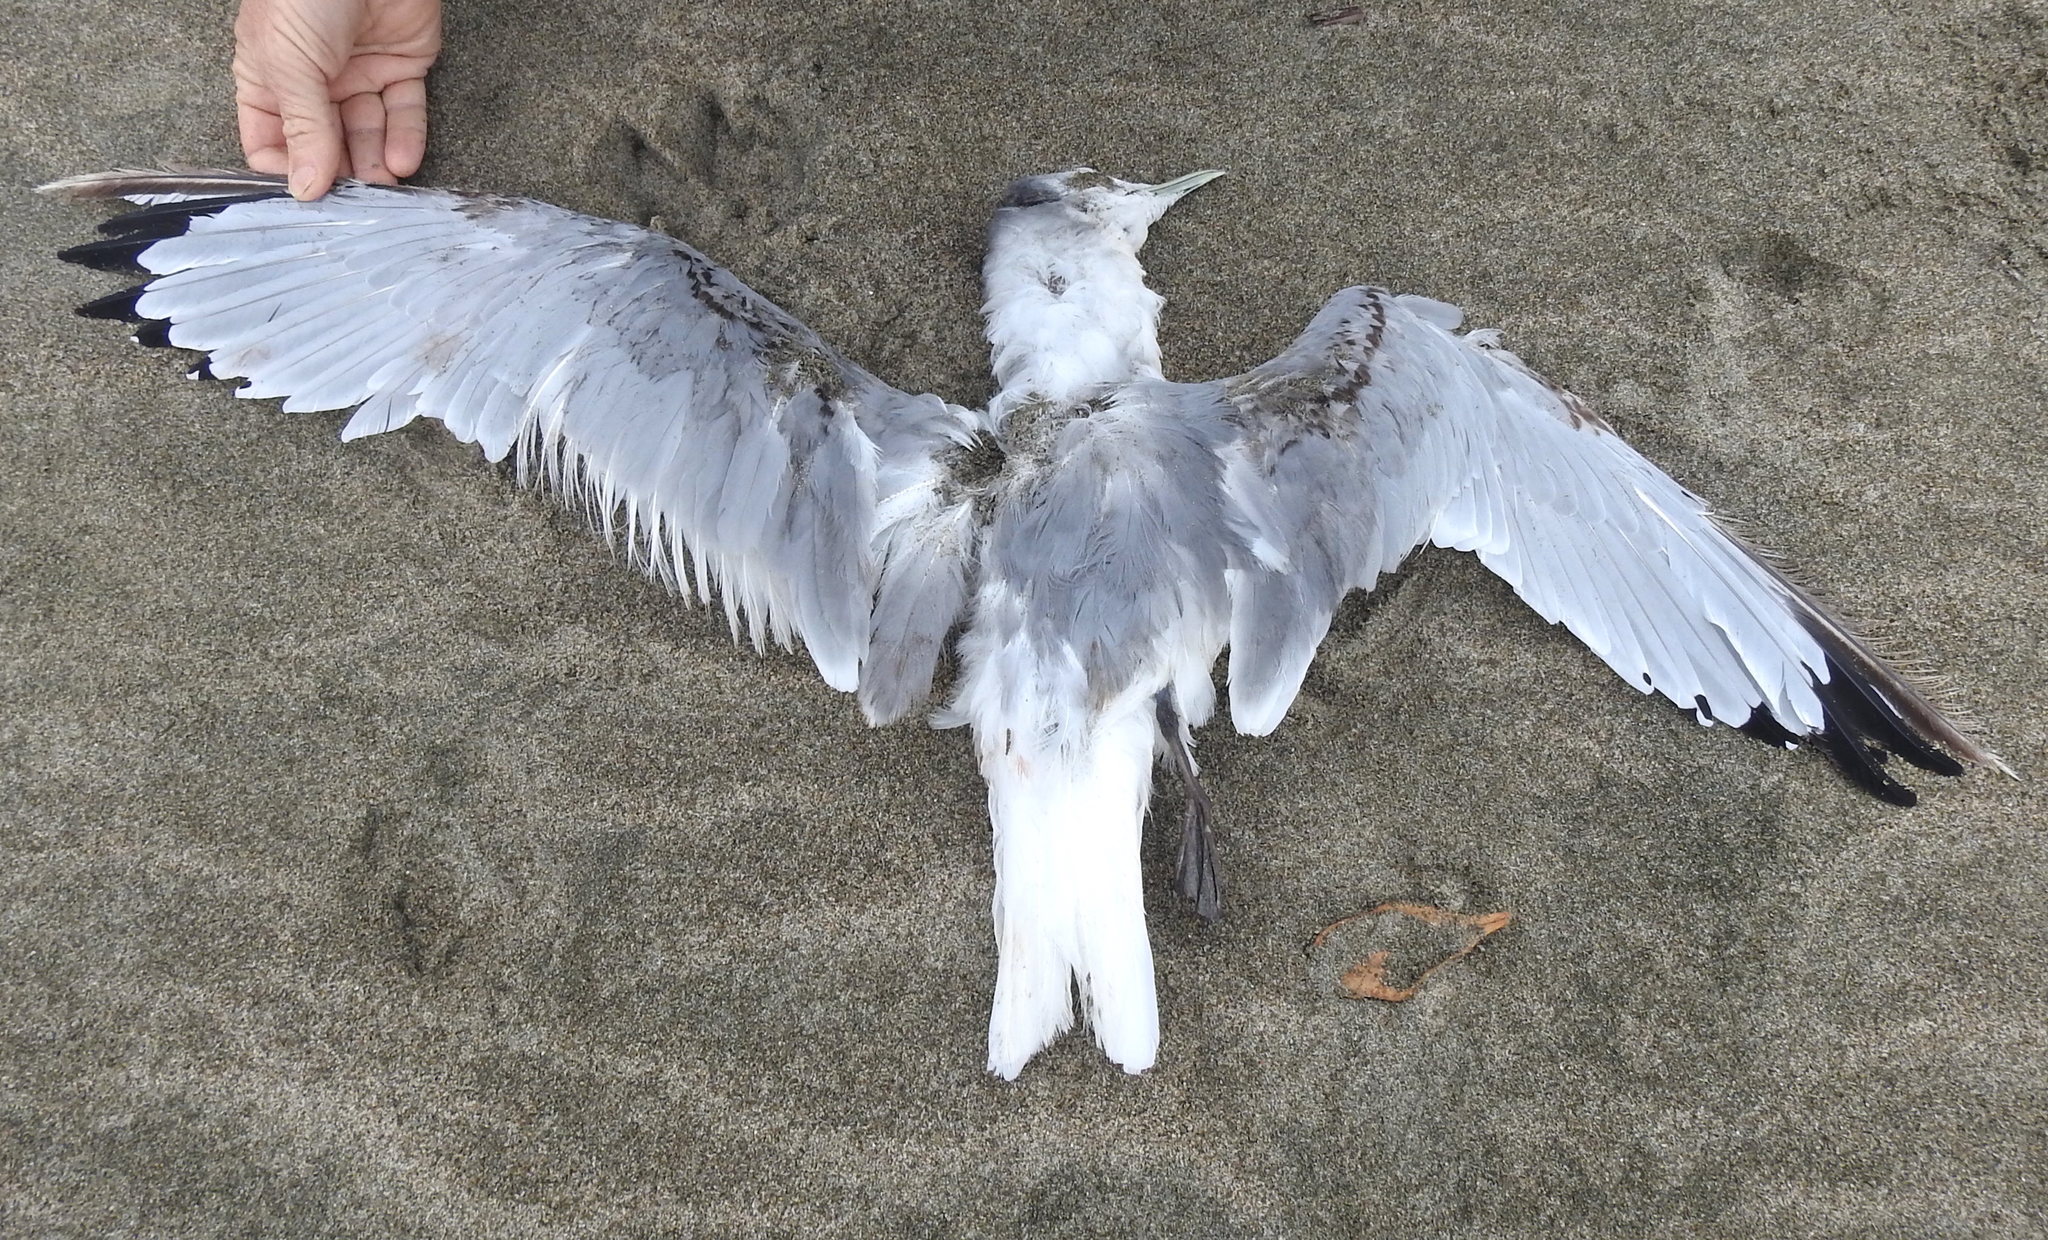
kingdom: Animalia
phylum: Chordata
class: Aves
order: Charadriiformes
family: Laridae
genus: Rissa
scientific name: Rissa tridactyla
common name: Black-legged kittiwake
